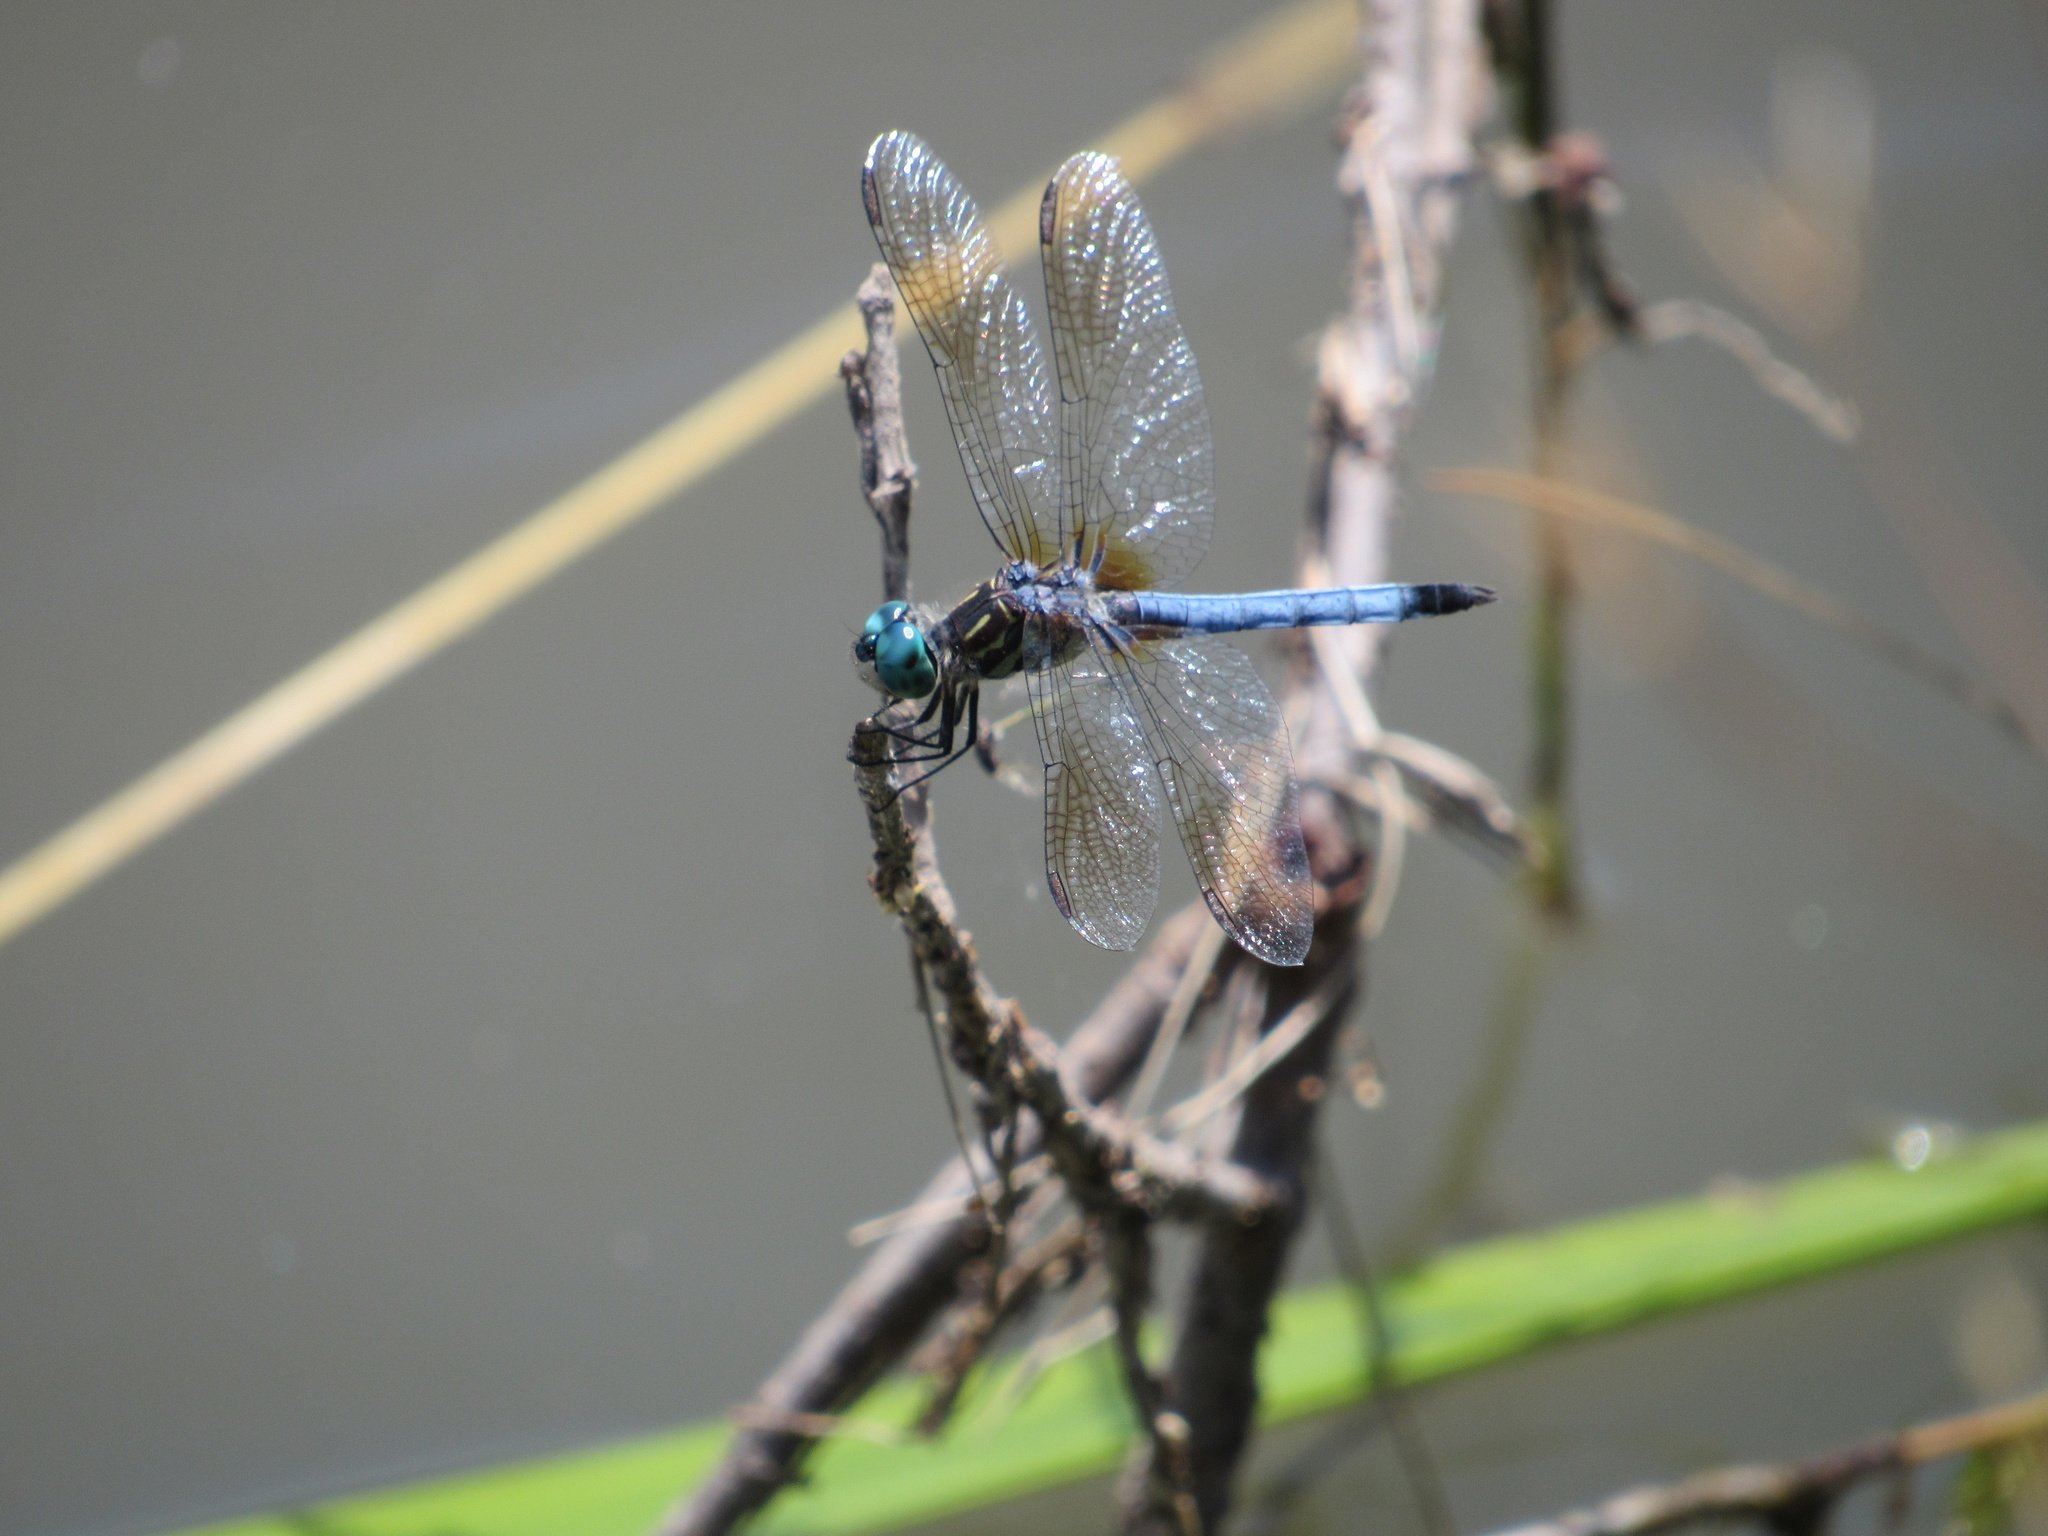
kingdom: Animalia
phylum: Arthropoda
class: Insecta
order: Odonata
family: Libellulidae
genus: Pachydiplax
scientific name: Pachydiplax longipennis
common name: Blue dasher
